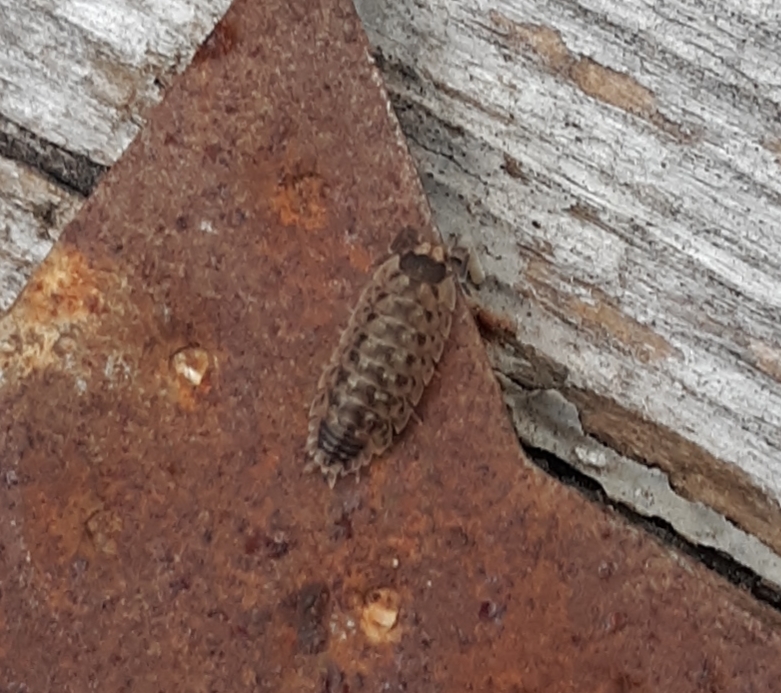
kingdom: Animalia
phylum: Arthropoda
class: Malacostraca
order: Isopoda
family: Porcellionidae
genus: Porcellio
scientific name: Porcellio spinicornis
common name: Painted woodlouse
